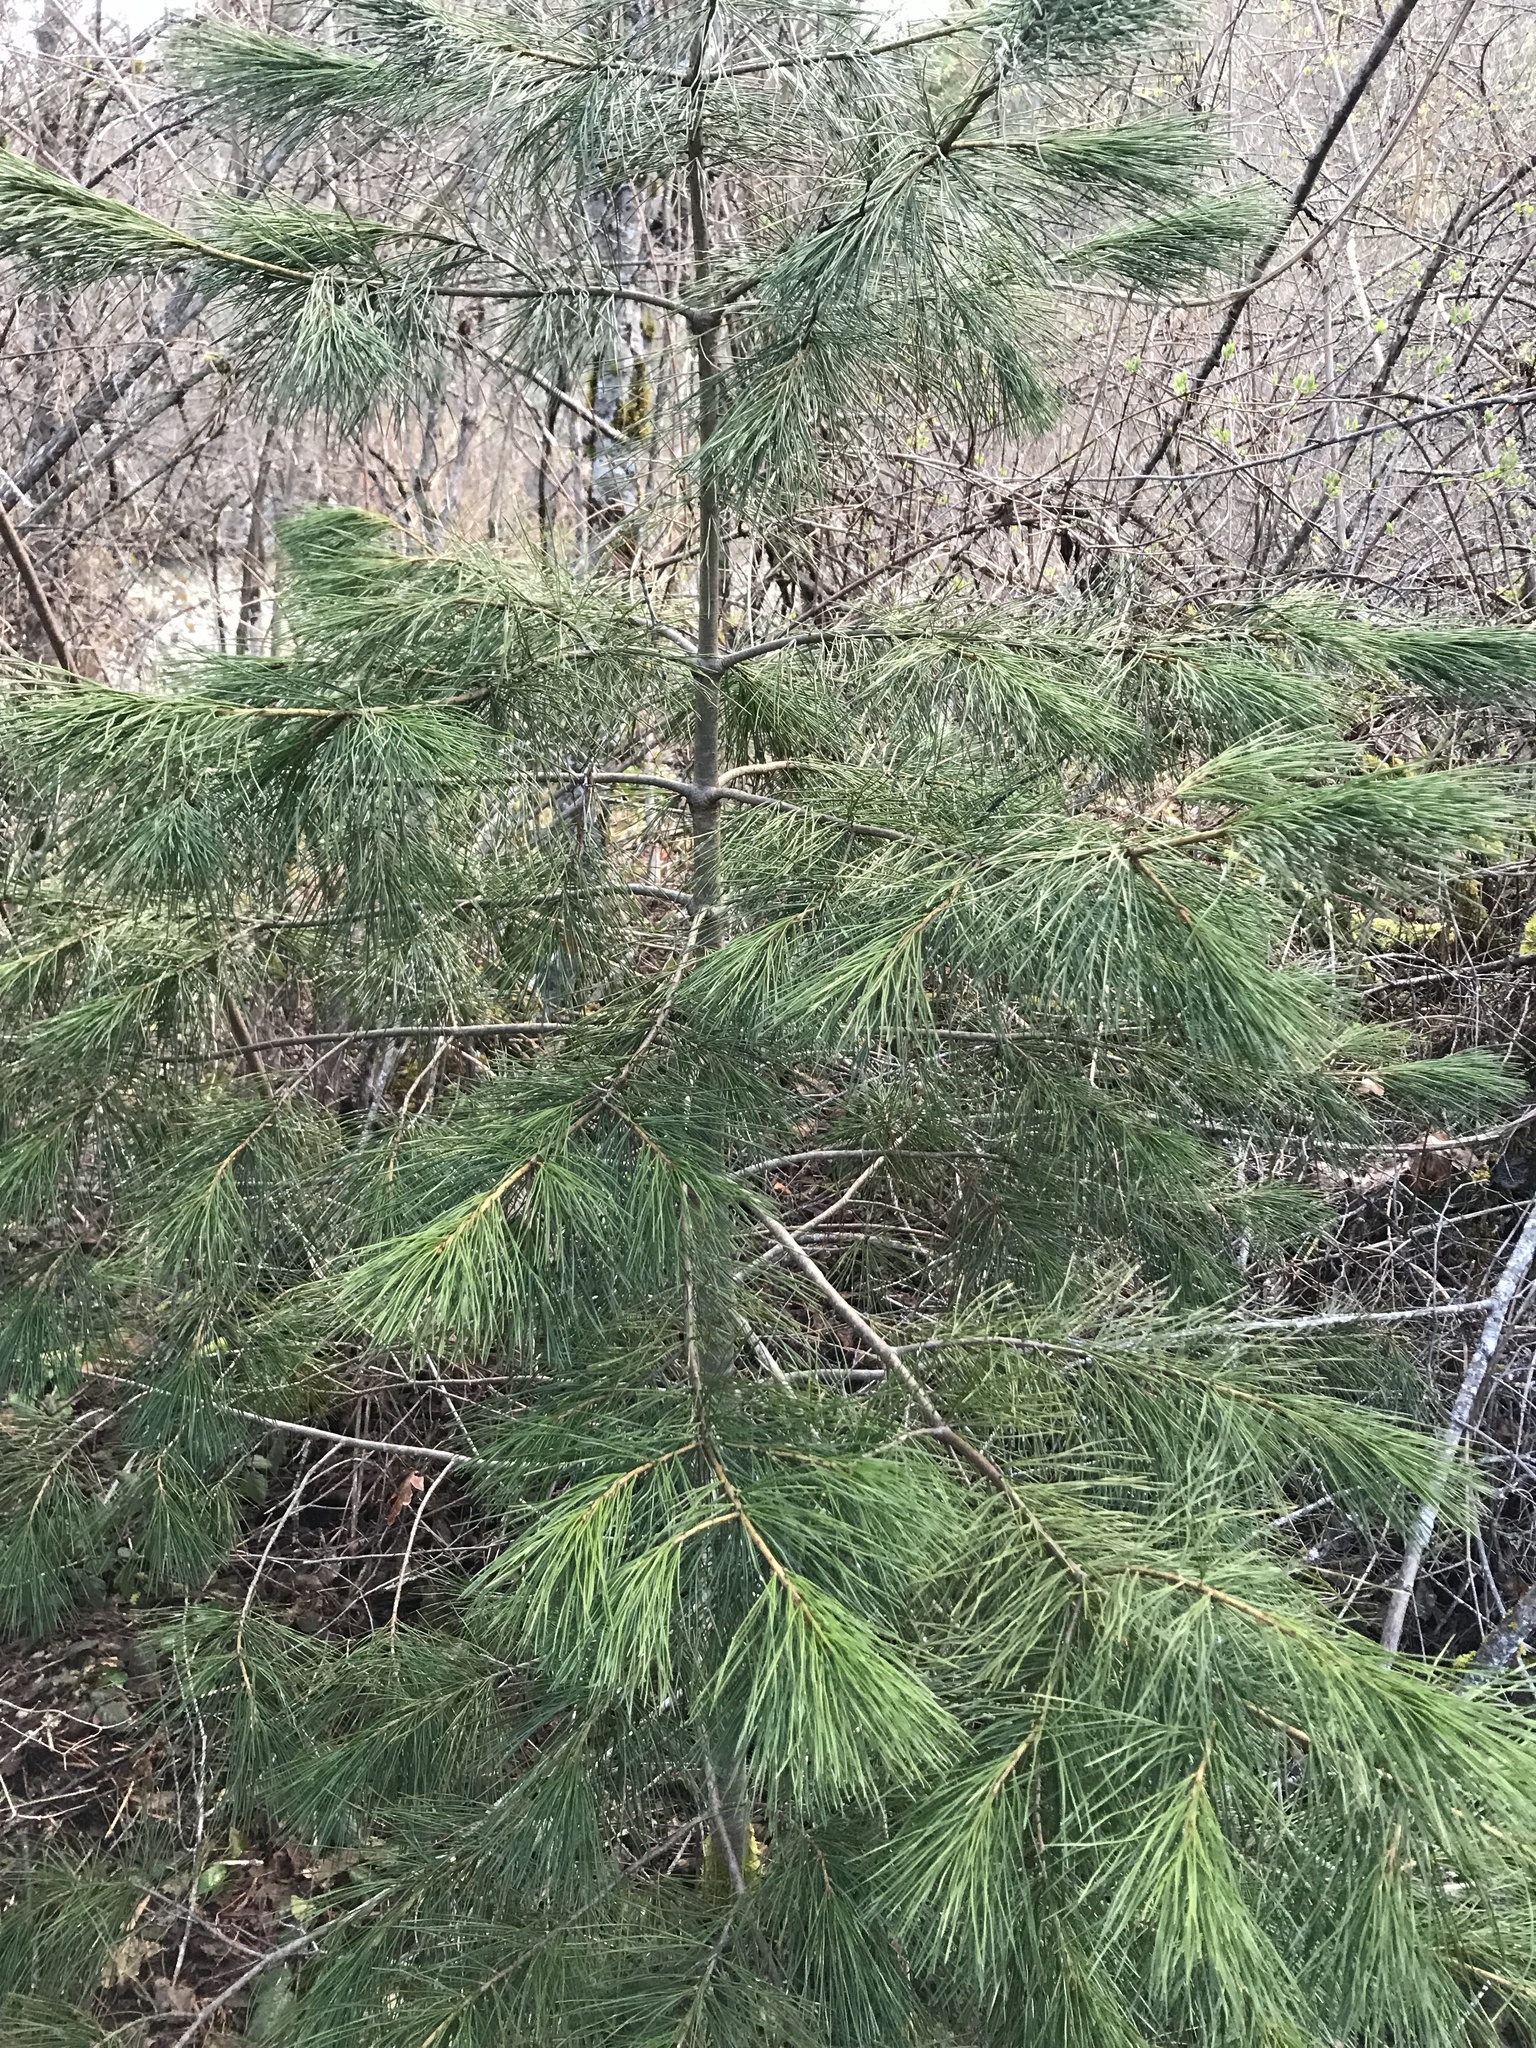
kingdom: Plantae
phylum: Tracheophyta
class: Pinopsida
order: Pinales
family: Pinaceae
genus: Pinus
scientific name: Pinus lambertiana
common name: Sugar pine
